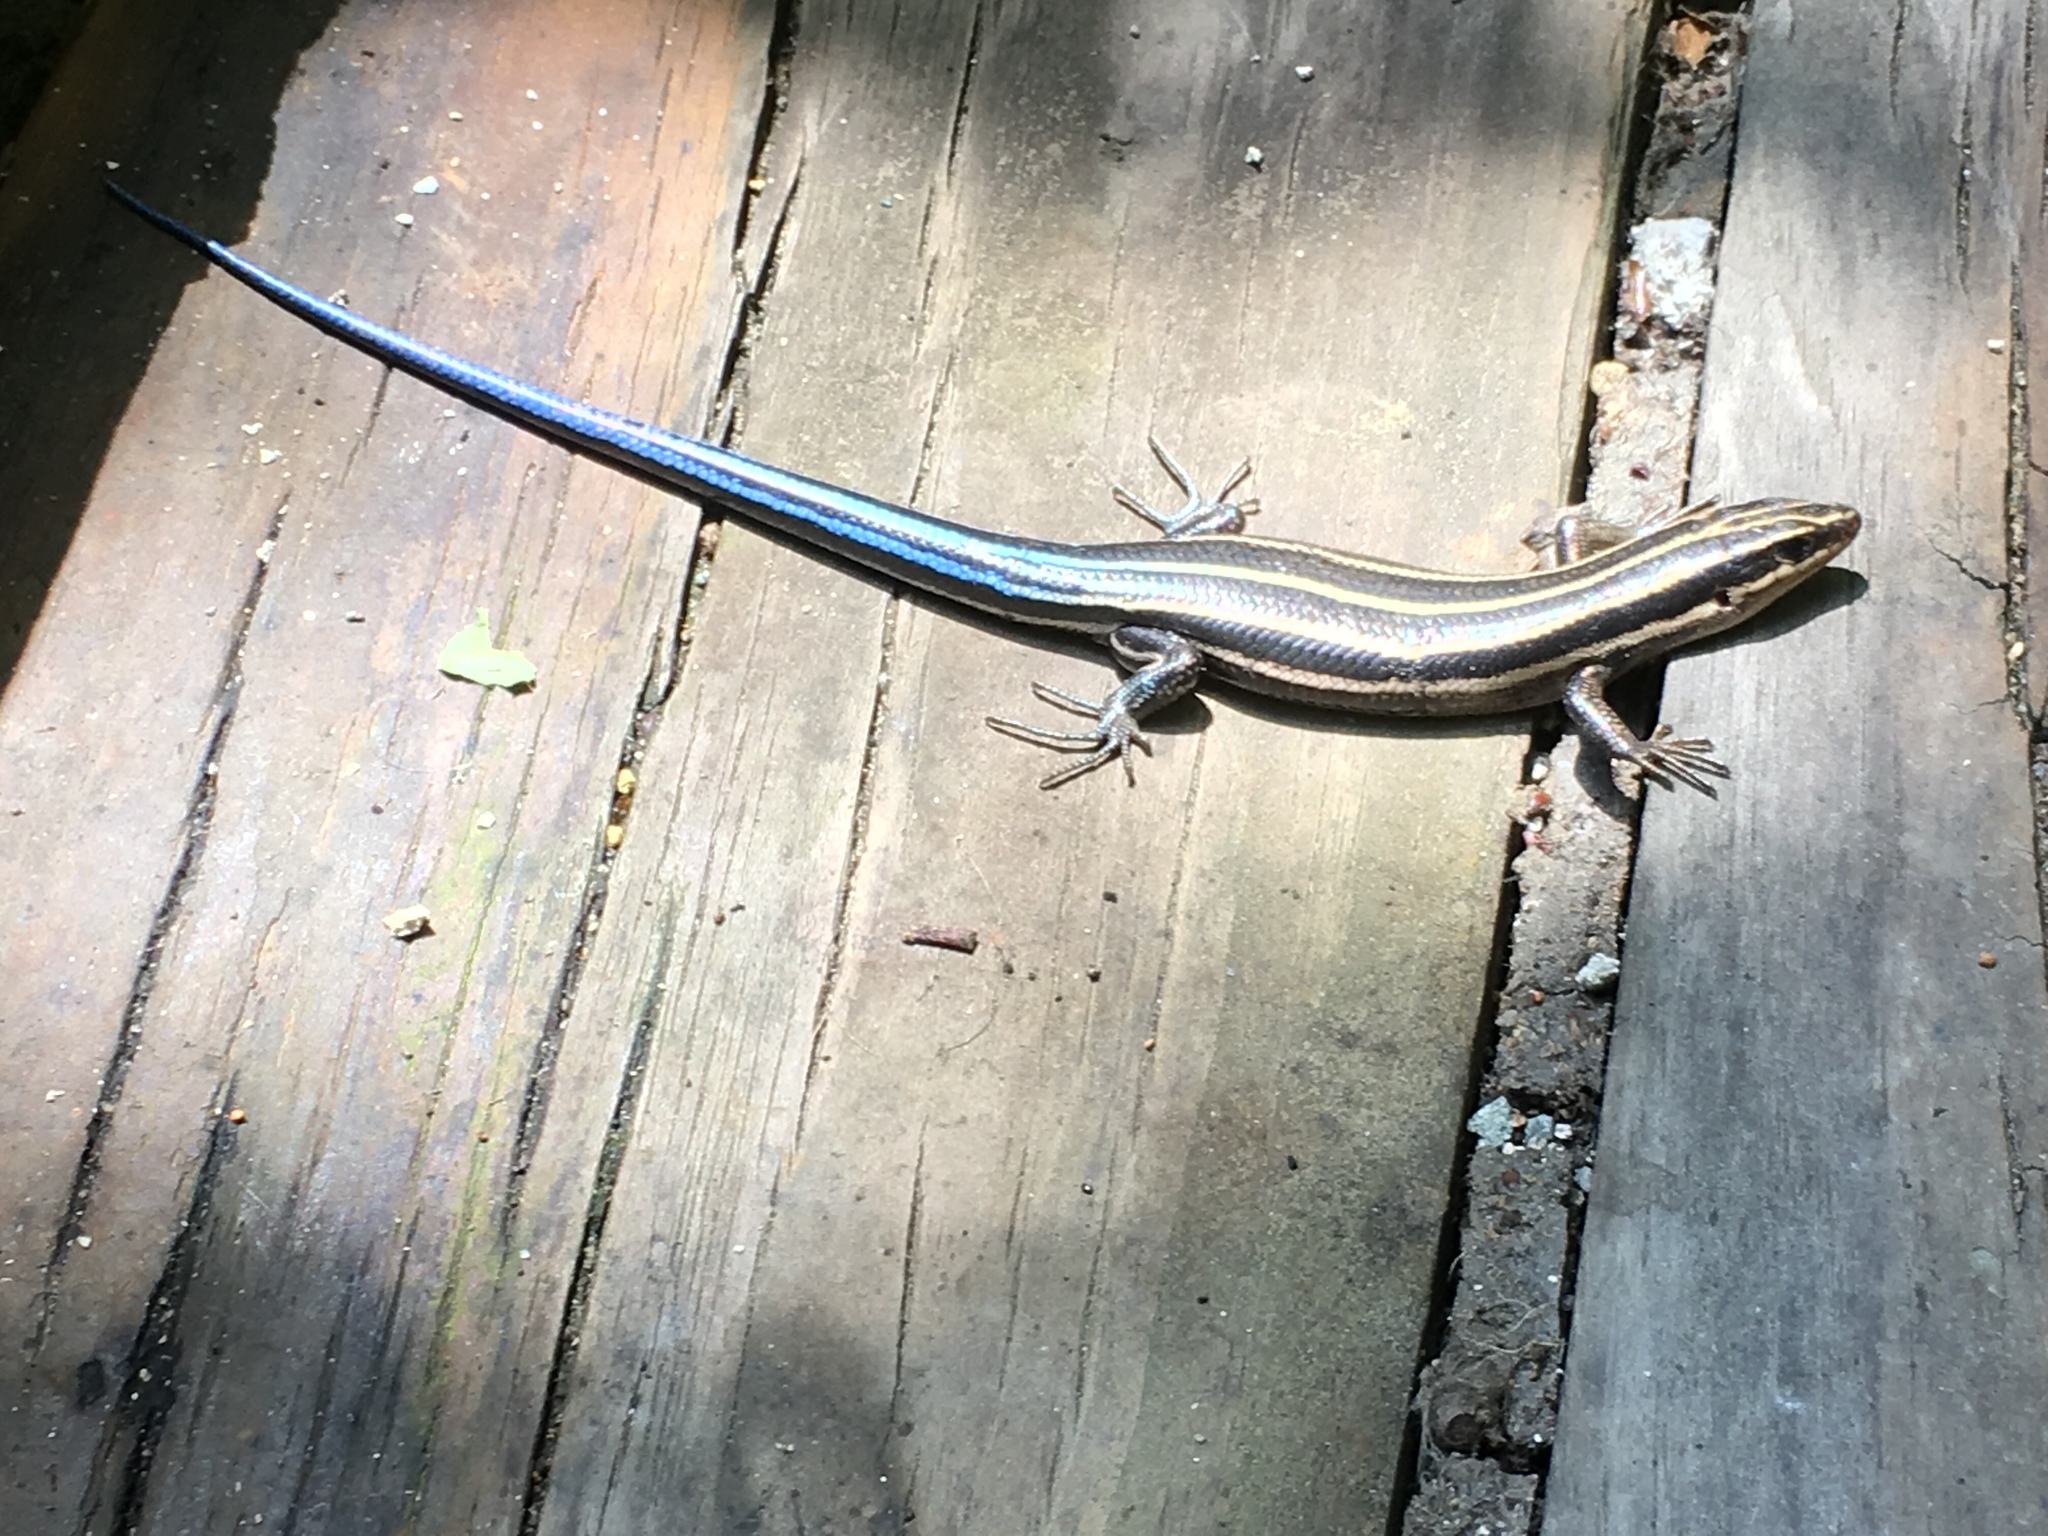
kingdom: Animalia
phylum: Chordata
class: Squamata
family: Scincidae
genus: Plestiodon
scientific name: Plestiodon fasciatus
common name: Five-lined skink
